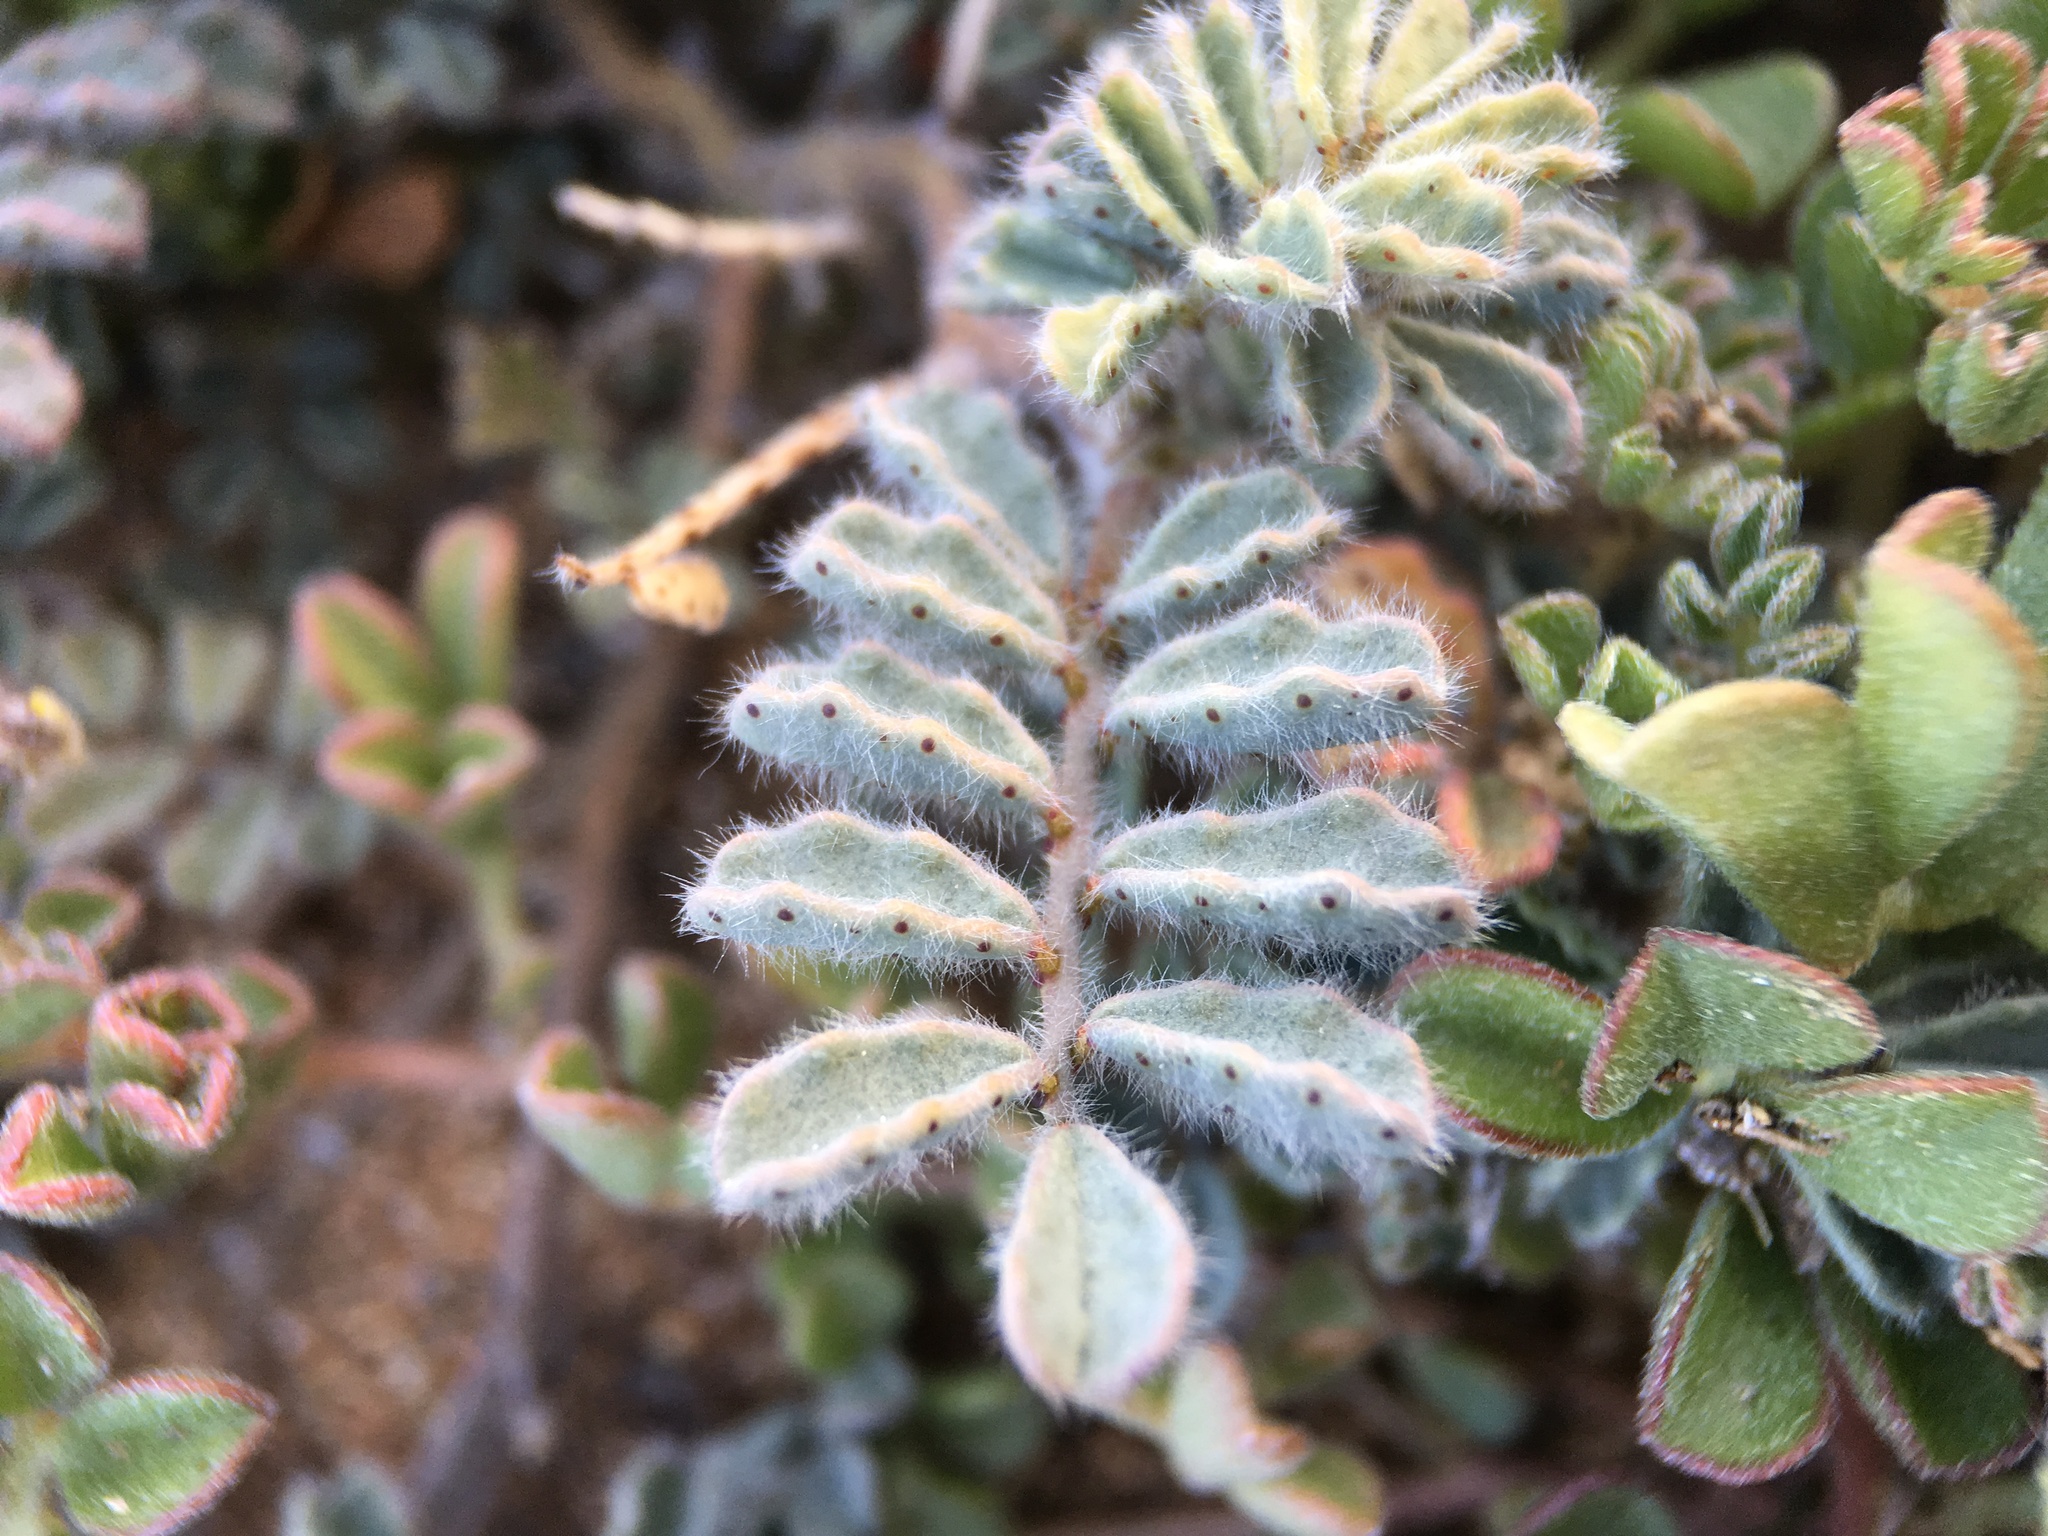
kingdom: Plantae
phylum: Tracheophyta
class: Magnoliopsida
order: Fabales
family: Fabaceae
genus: Dalea
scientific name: Dalea mollissima
